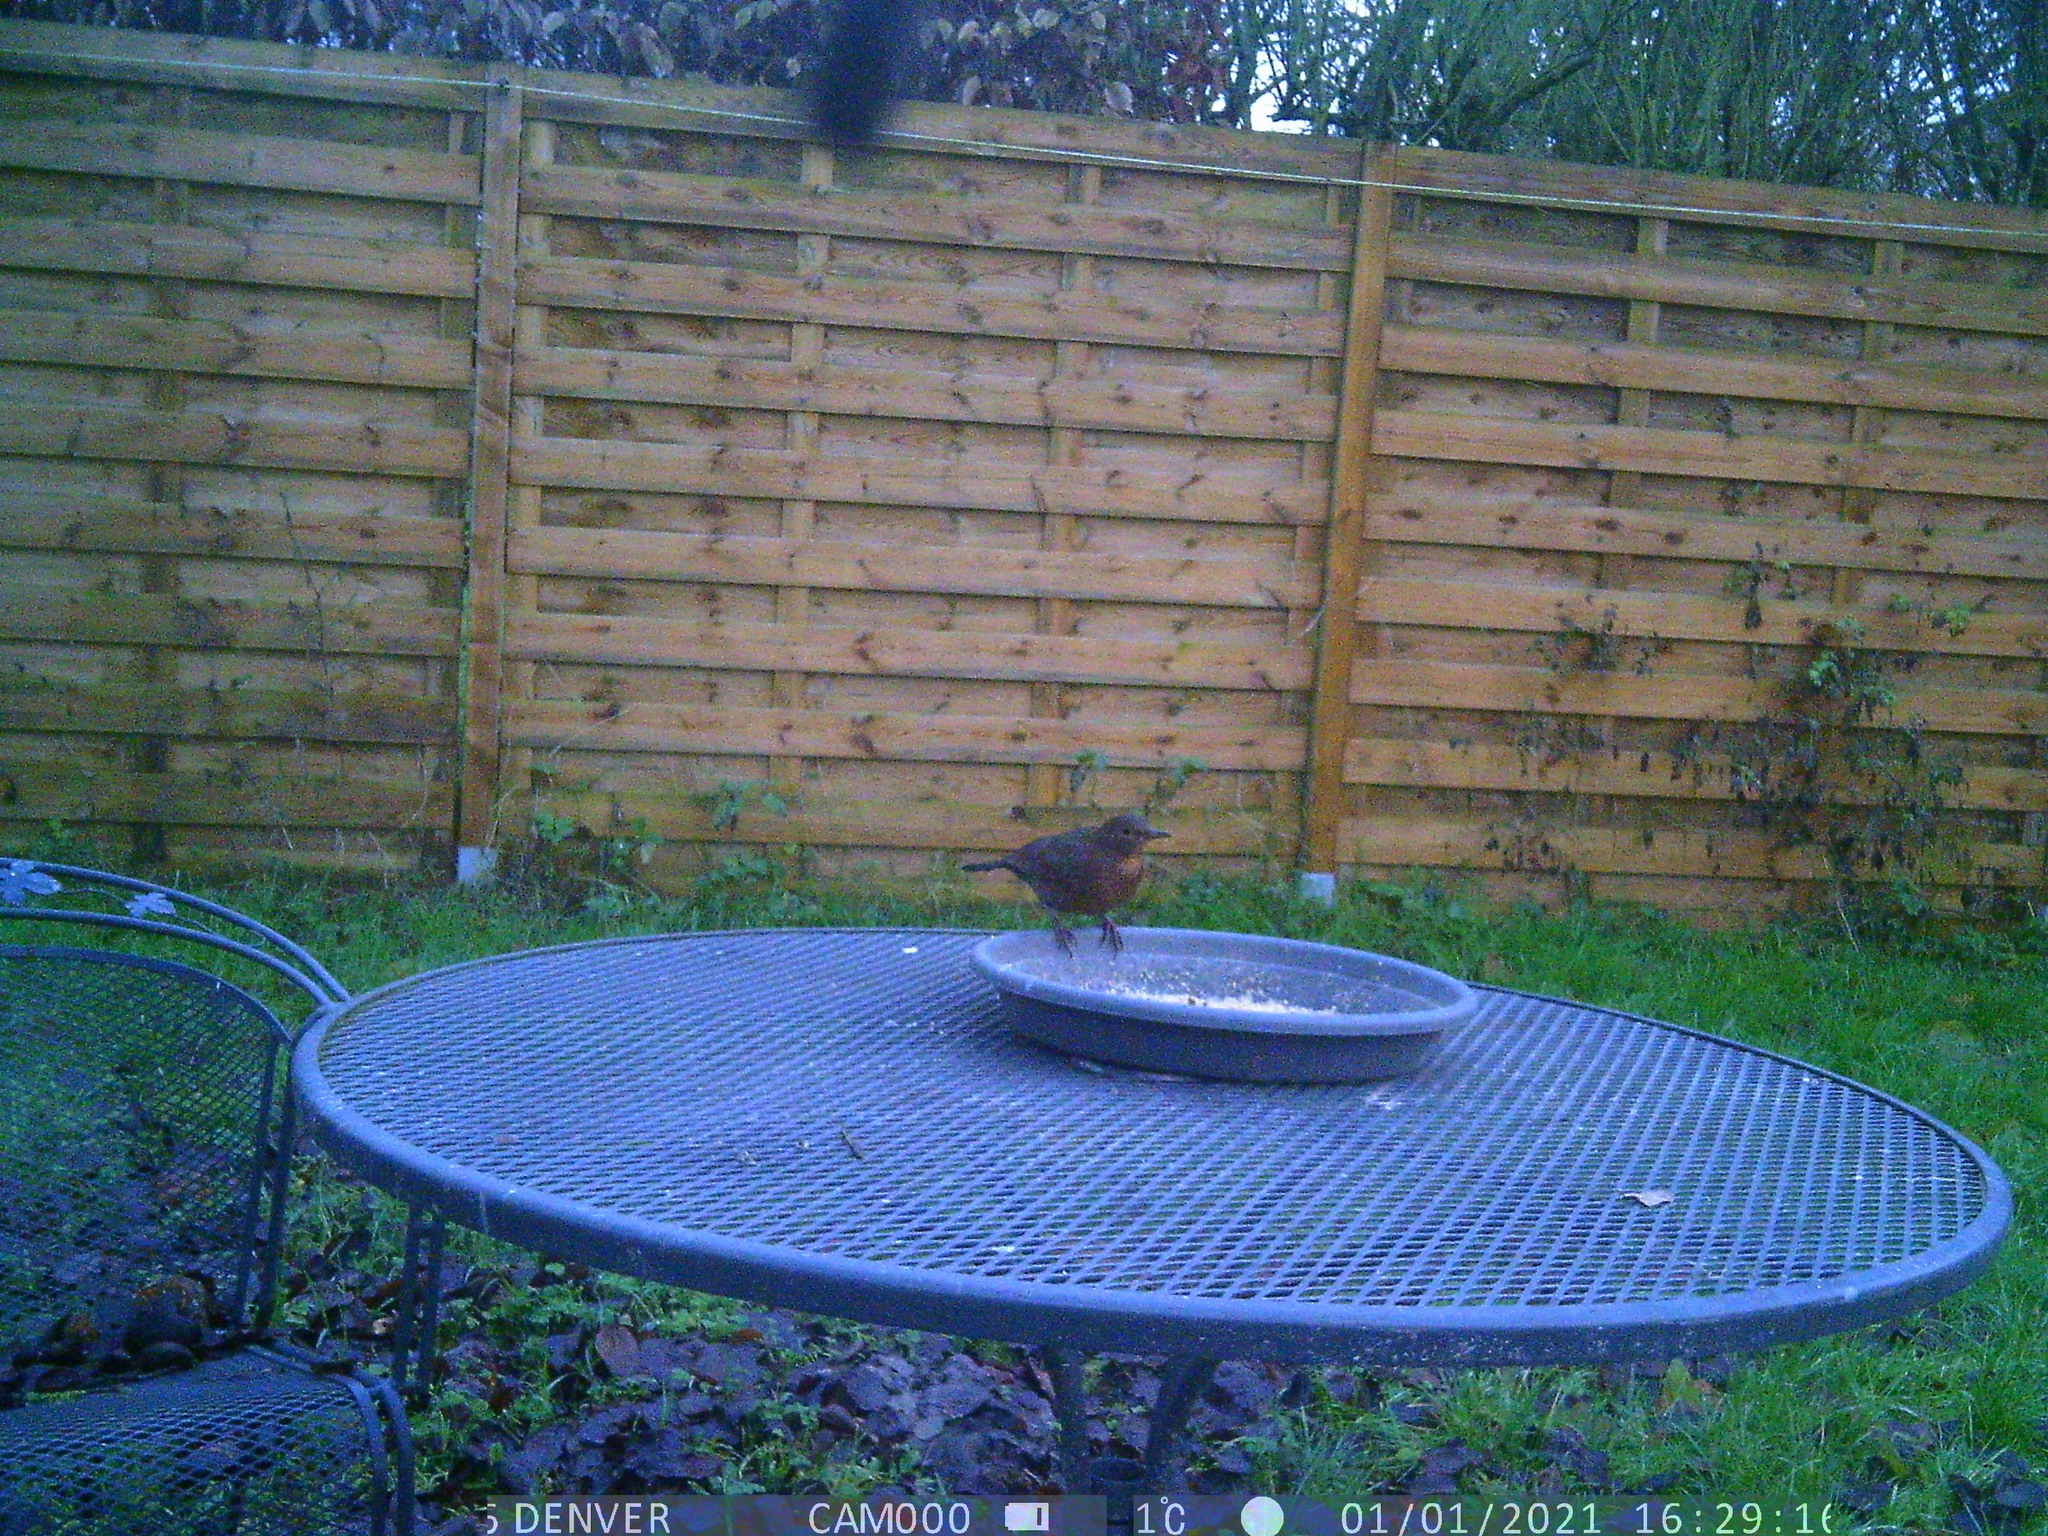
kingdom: Animalia
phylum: Chordata
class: Aves
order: Passeriformes
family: Turdidae
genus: Turdus
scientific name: Turdus merula
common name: Common blackbird
